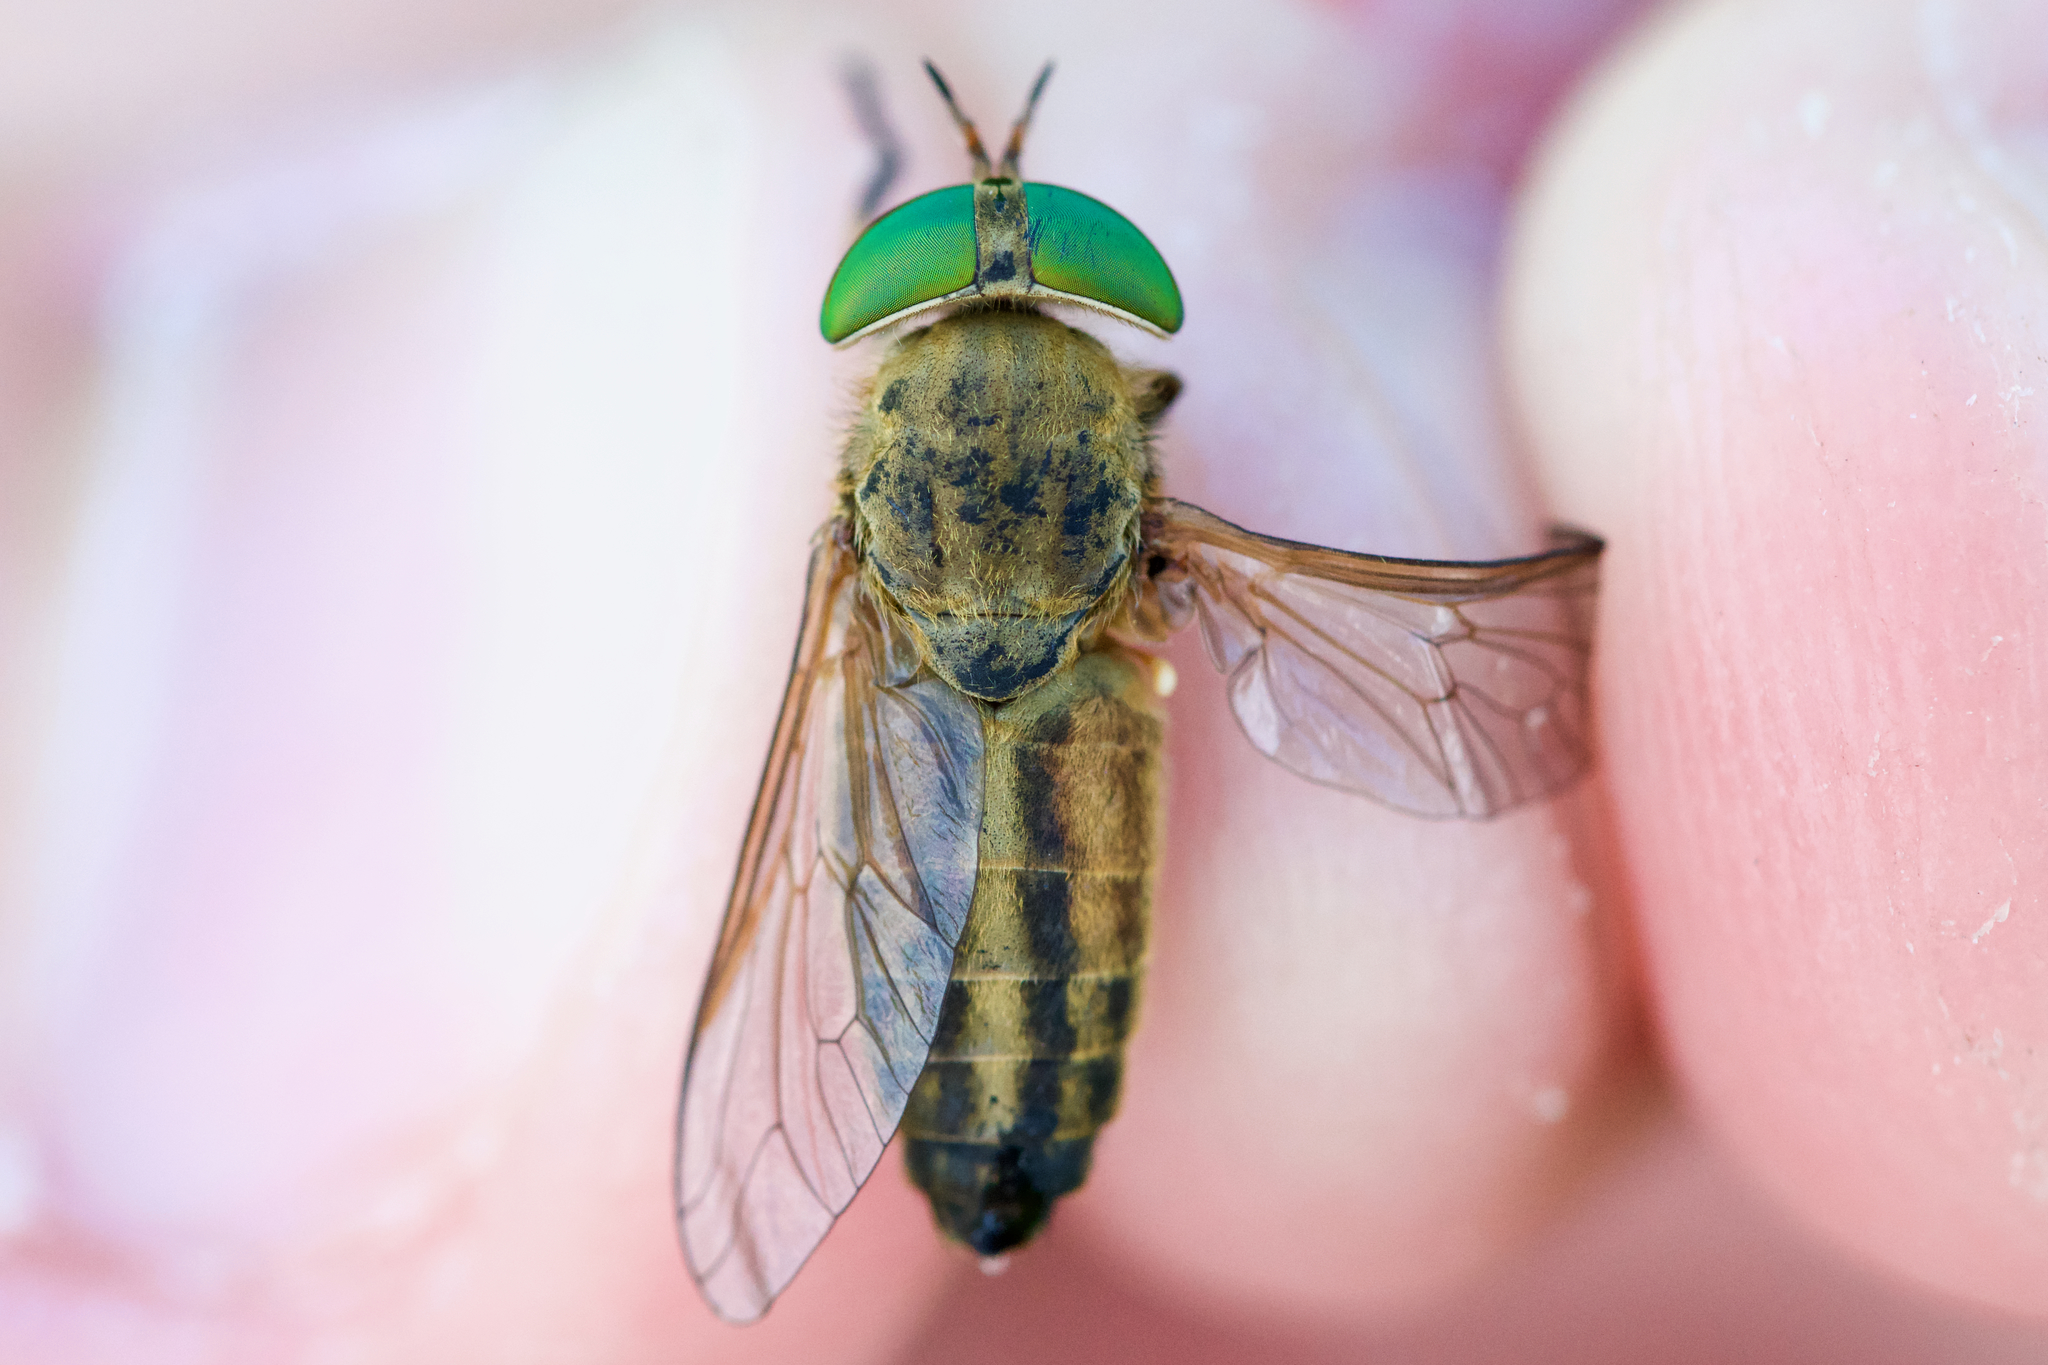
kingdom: Animalia
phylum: Arthropoda
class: Insecta
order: Diptera
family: Tabanidae
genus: Tabanus
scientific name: Tabanus quinquevittatus
